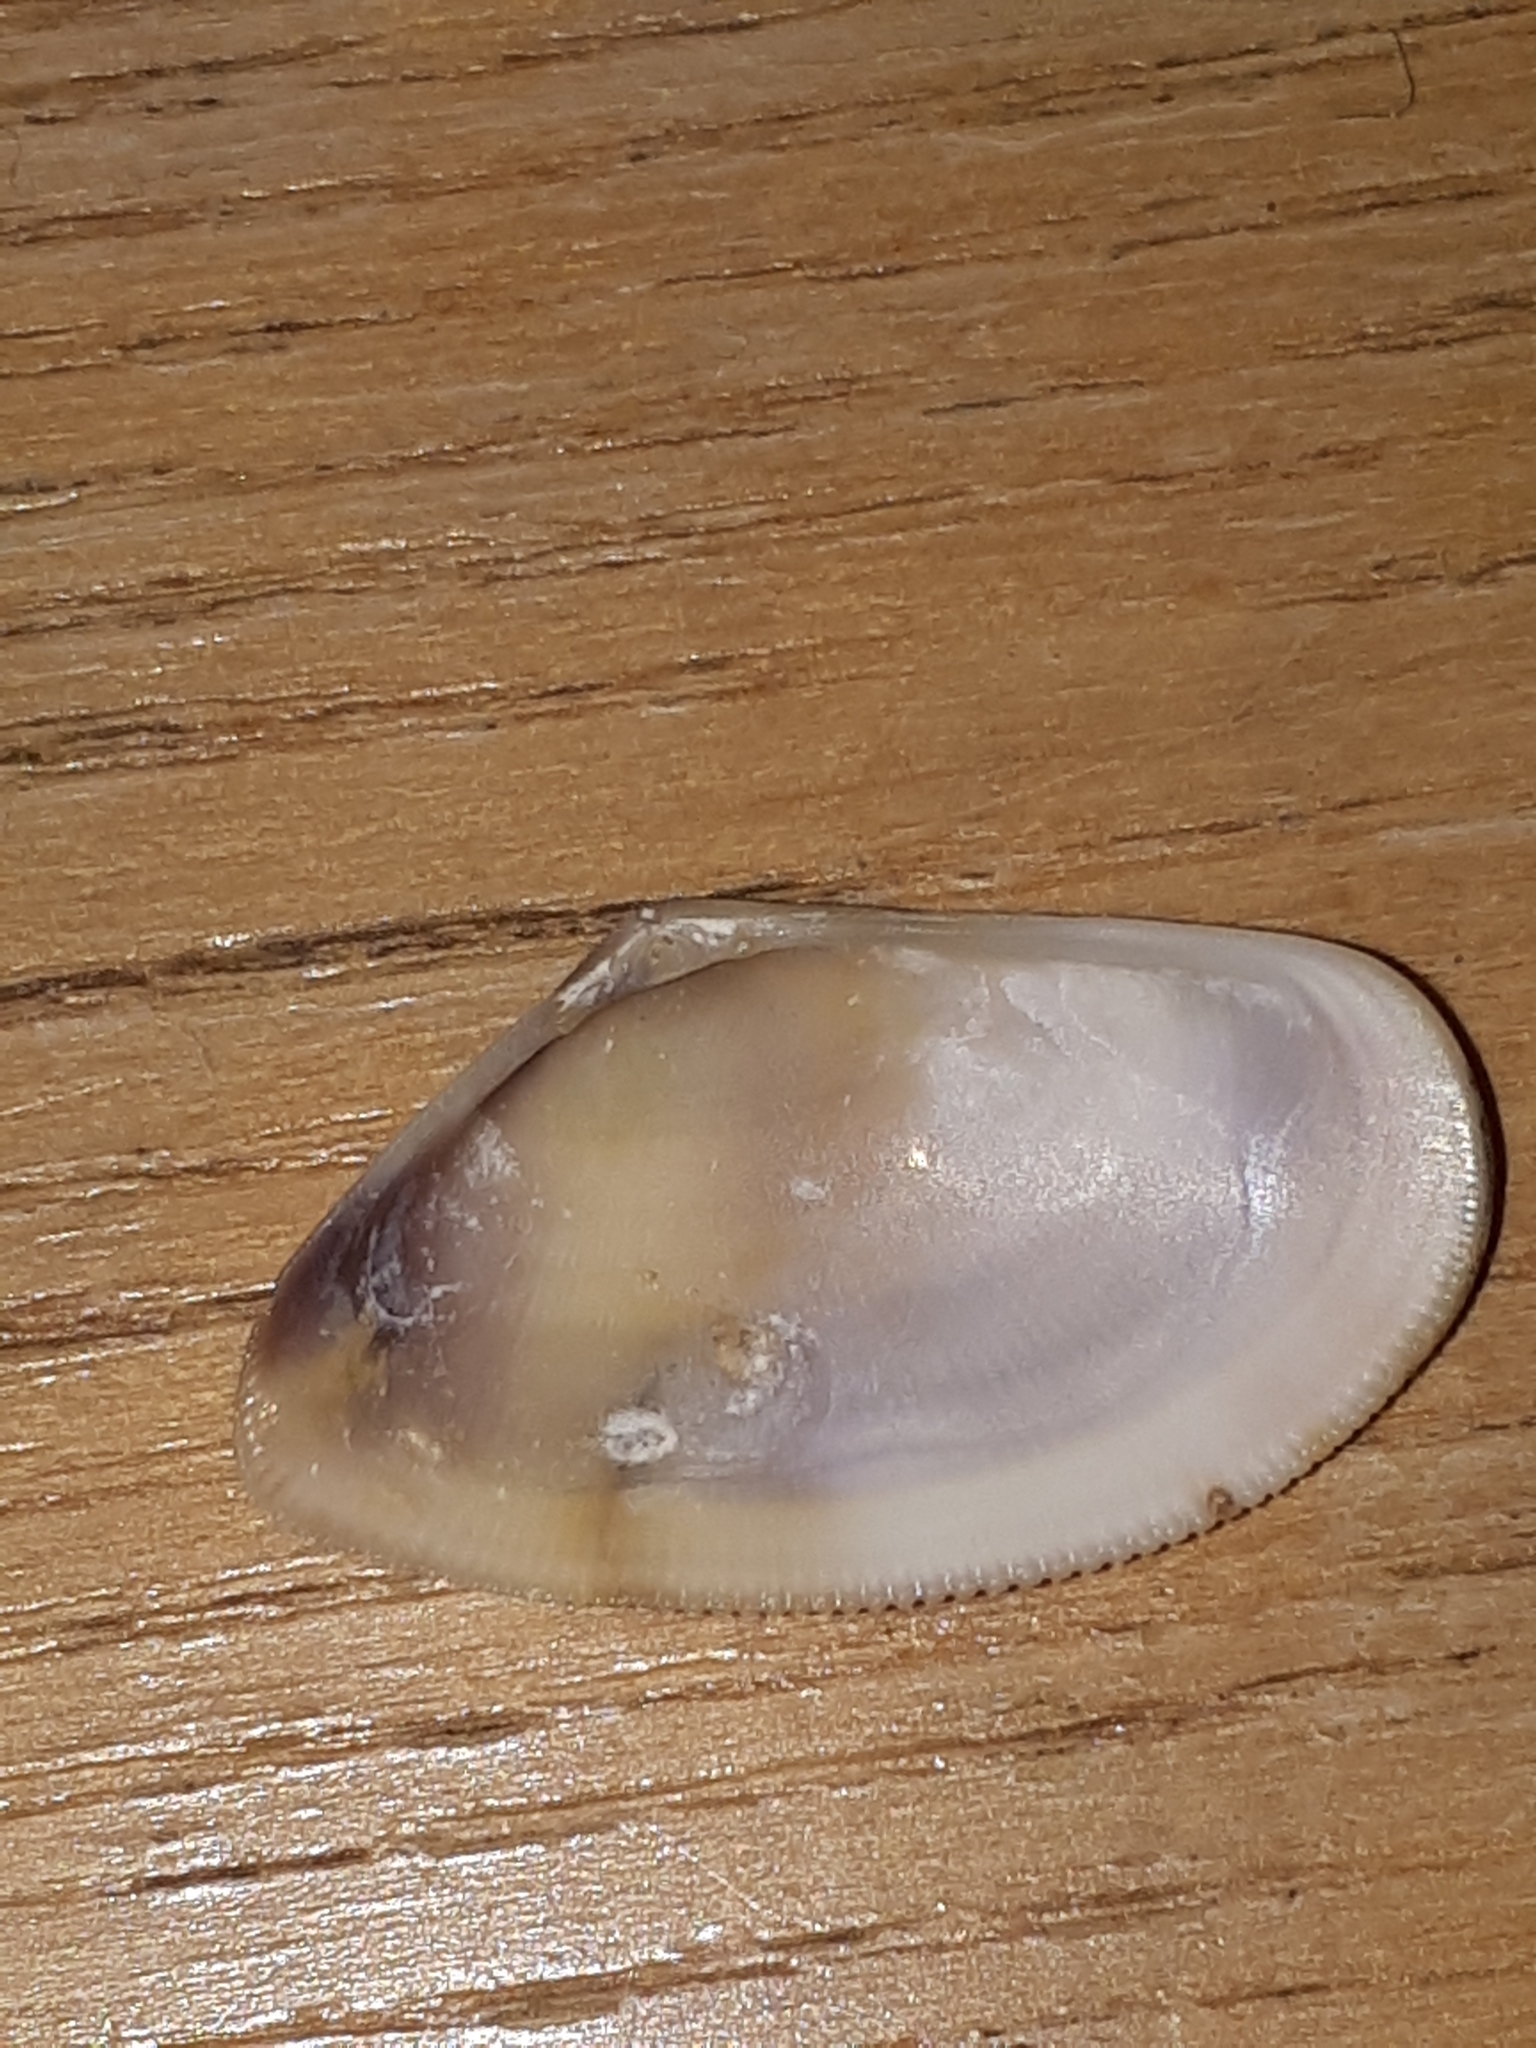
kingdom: Animalia
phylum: Mollusca
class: Bivalvia
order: Cardiida
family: Donacidae
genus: Donax
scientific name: Donax semistriatus
